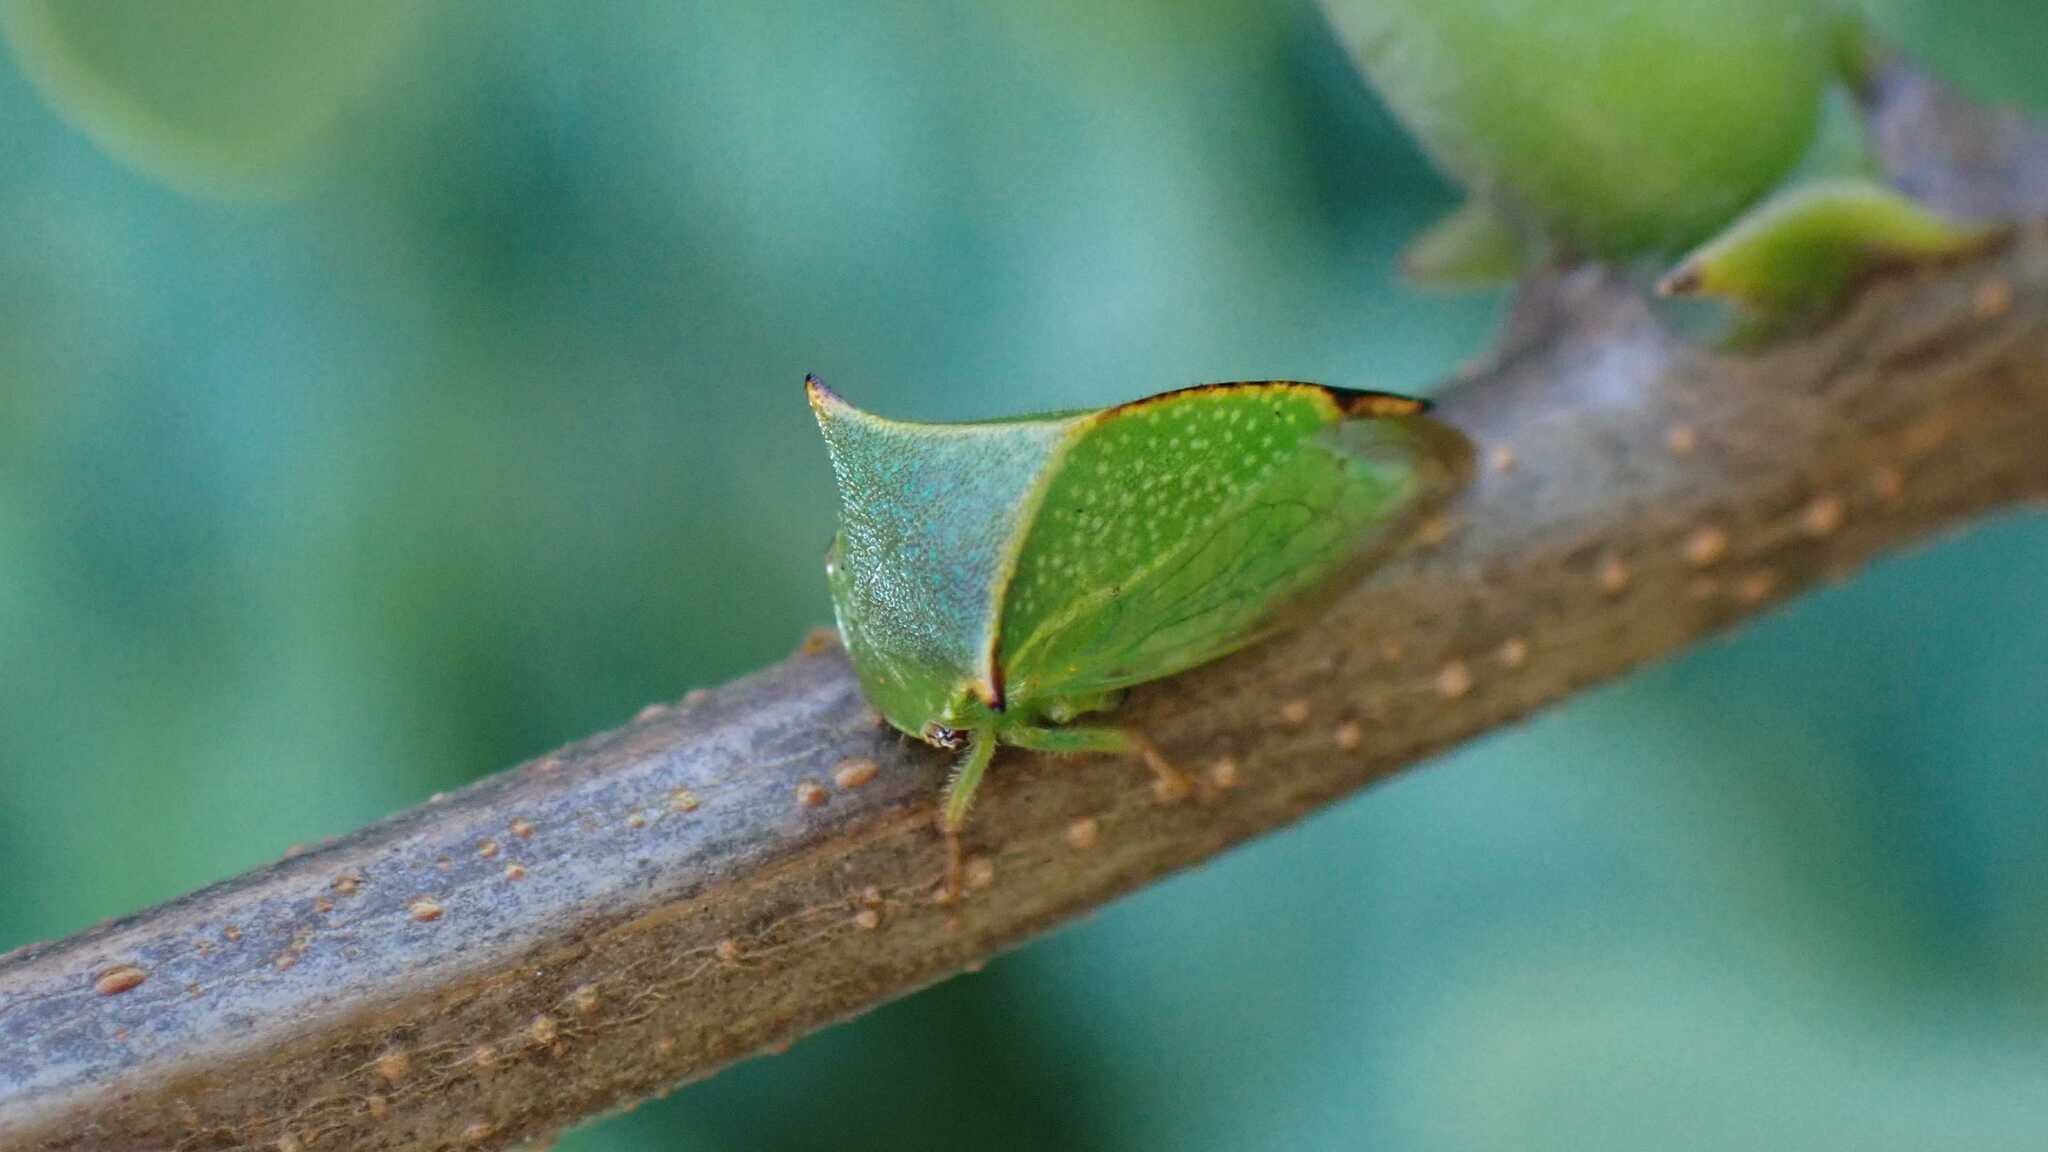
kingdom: Animalia
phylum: Arthropoda
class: Insecta
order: Hemiptera
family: Membracidae
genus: Stictocephala
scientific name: Stictocephala bisonia
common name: American buffalo treehopper
